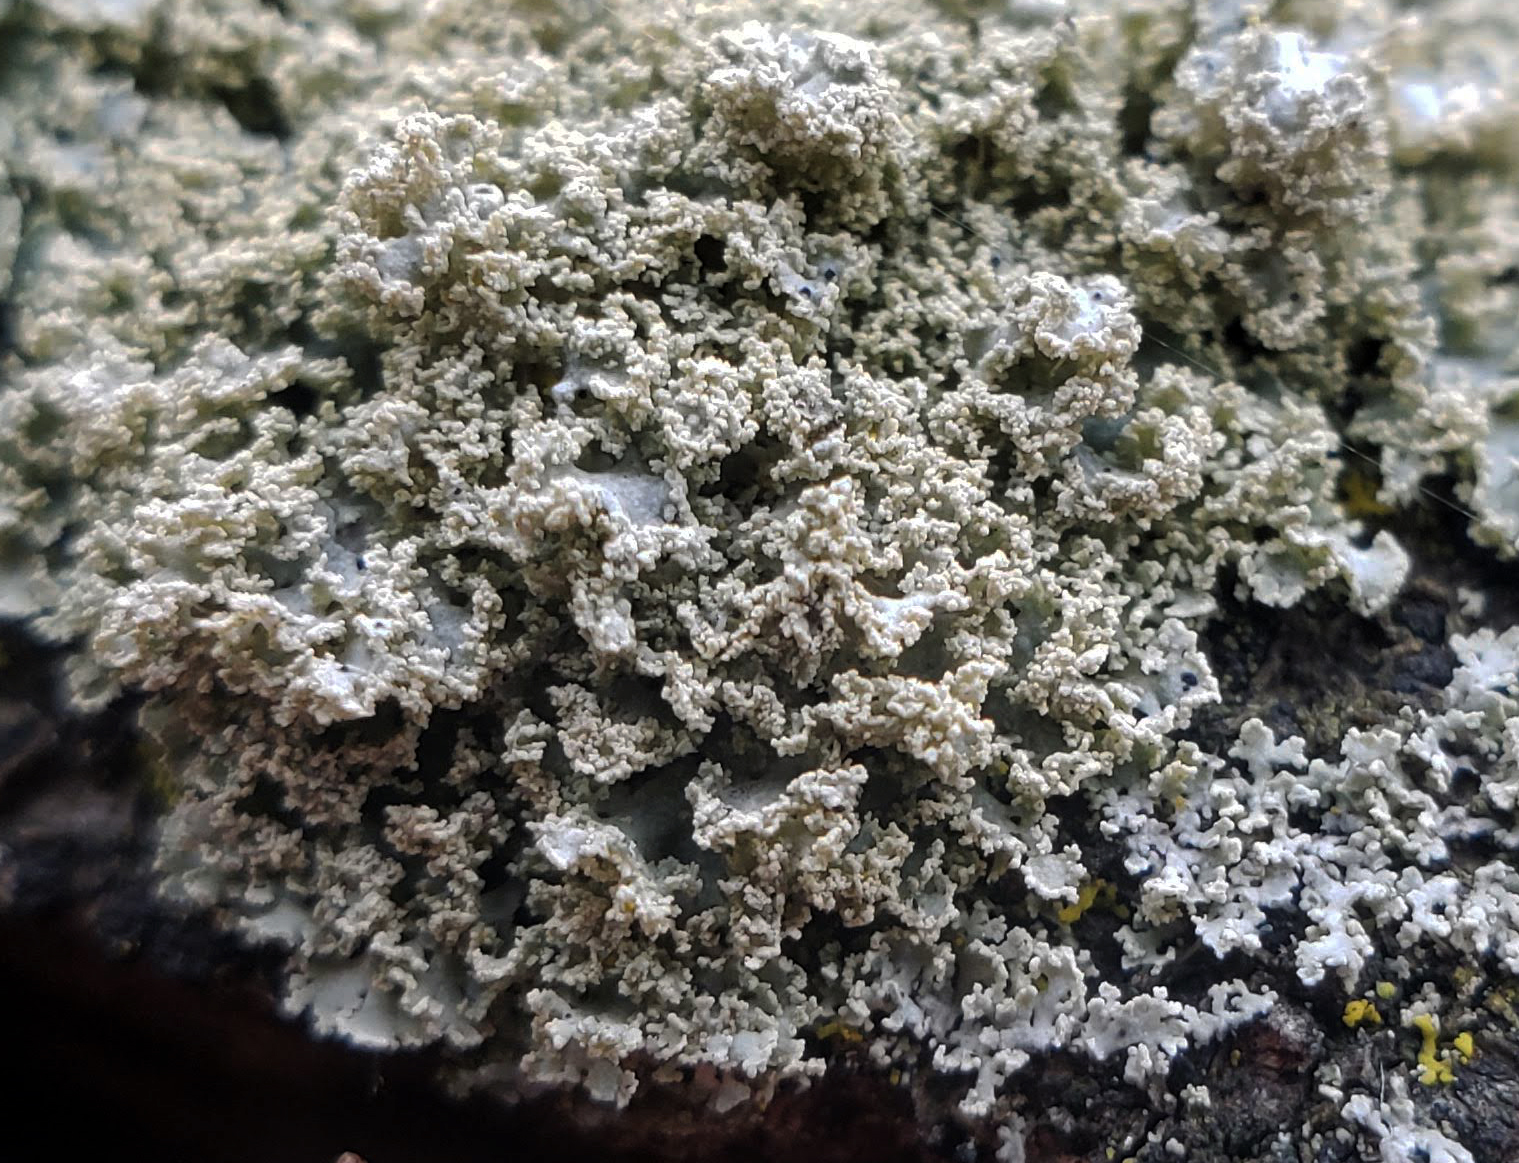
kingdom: Fungi
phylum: Ascomycota
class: Lecanoromycetes
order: Caliciales
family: Physciaceae
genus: Physcia
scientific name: Physcia millegrana
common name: Rosette lichen
